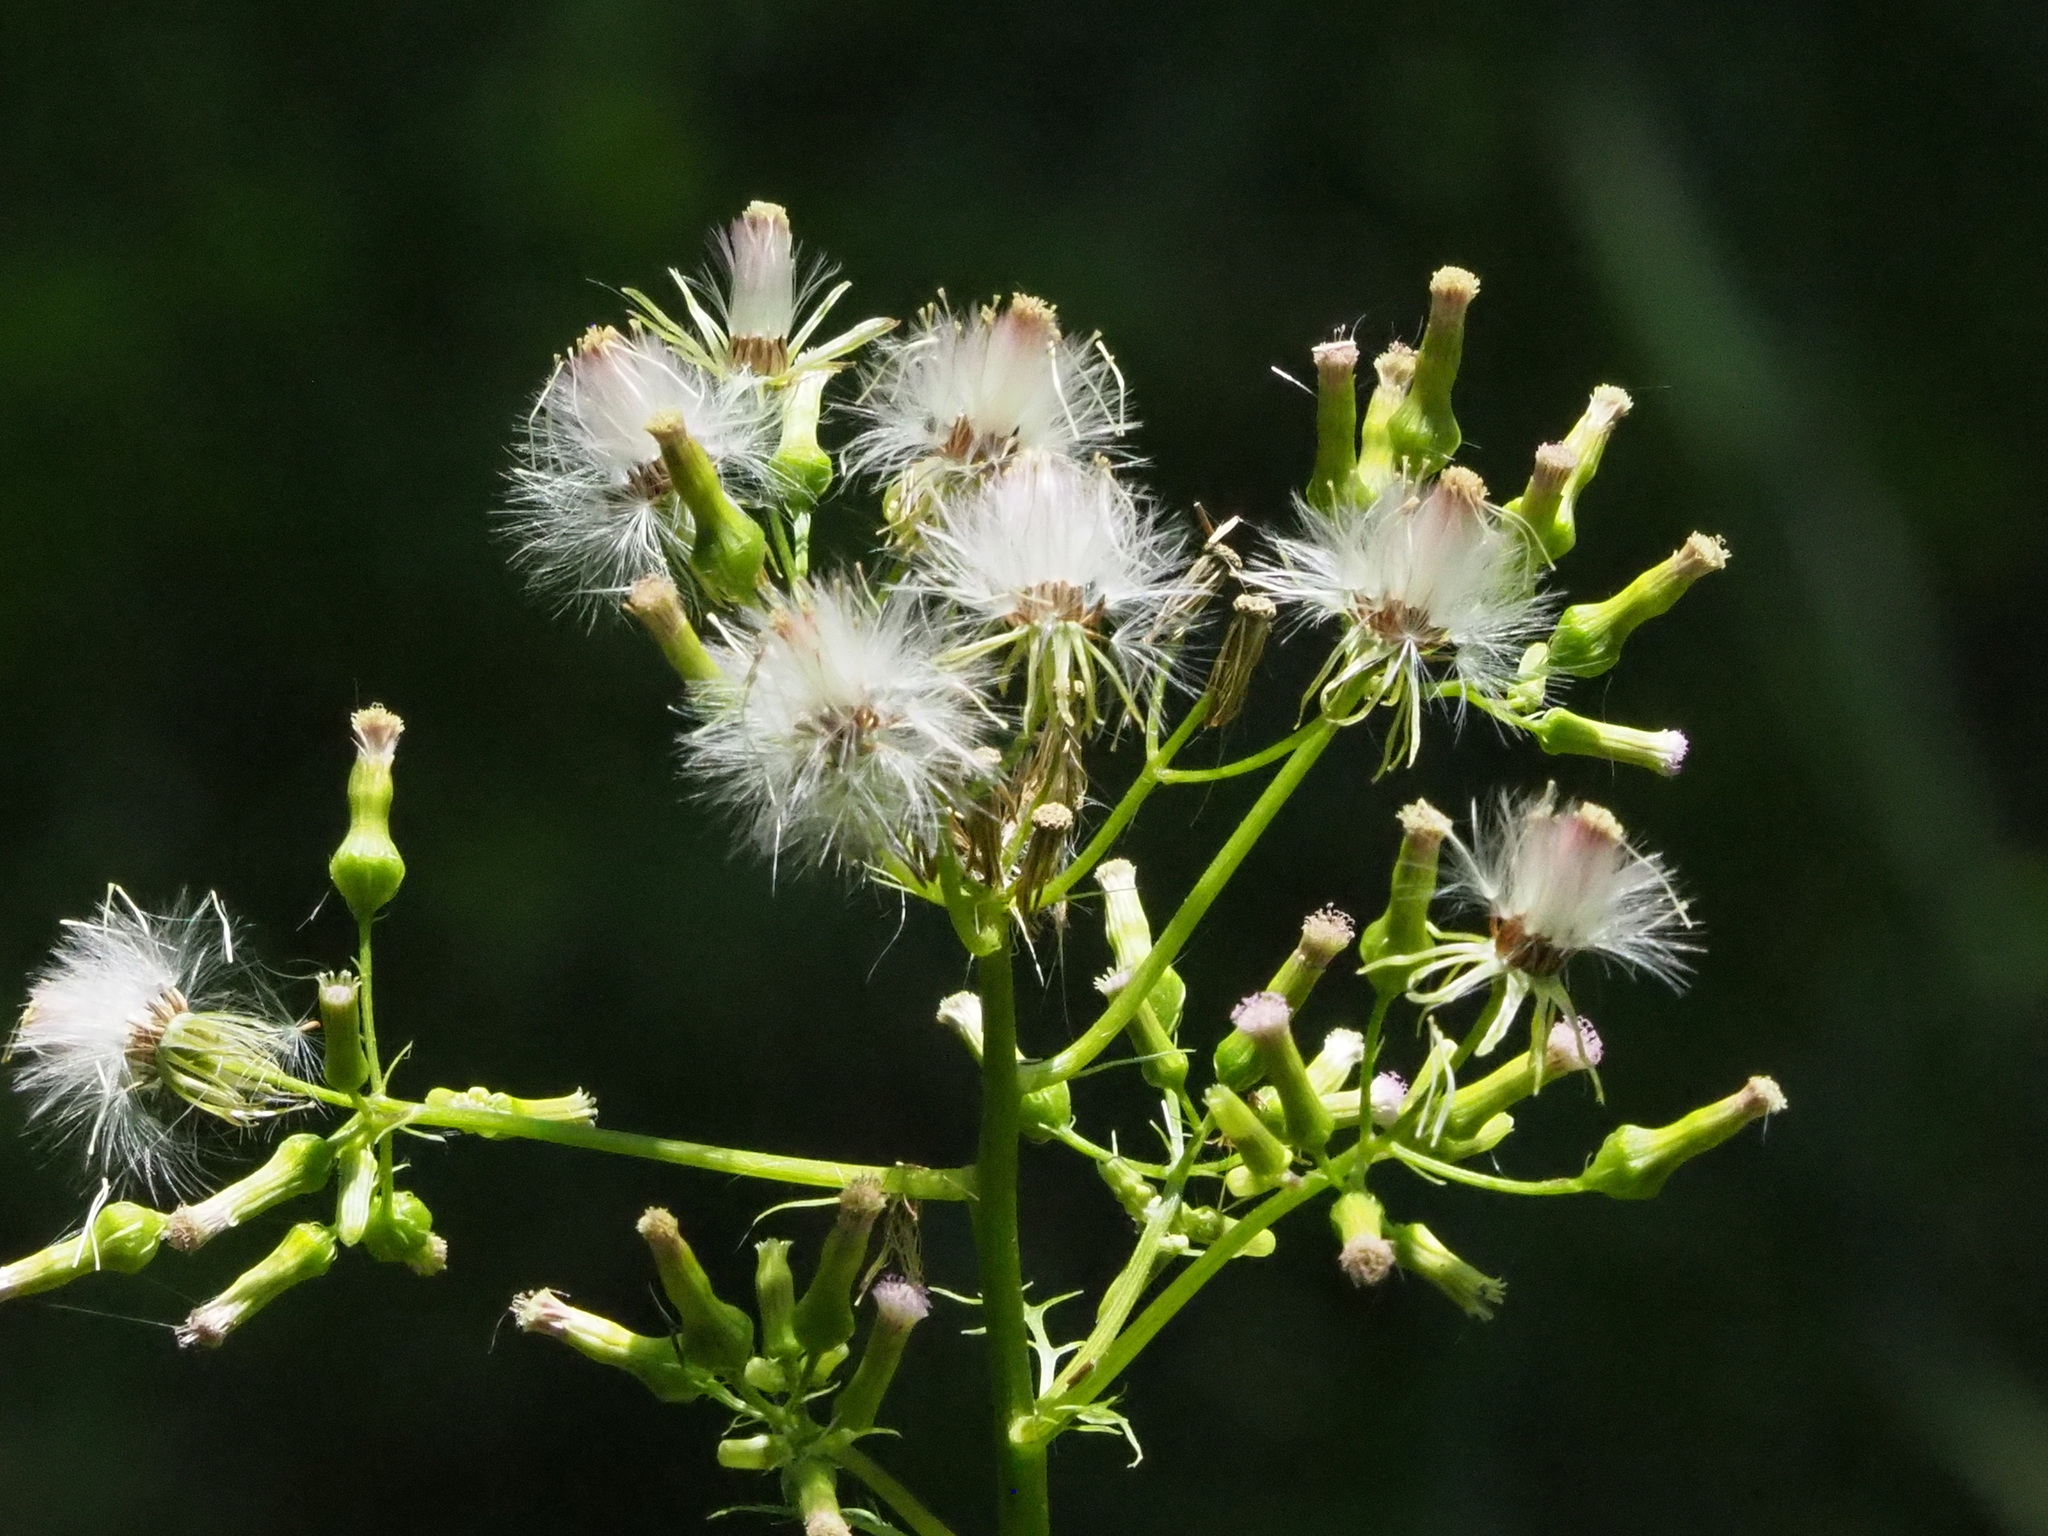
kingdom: Plantae
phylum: Tracheophyta
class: Magnoliopsida
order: Asterales
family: Asteraceae
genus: Erechtites
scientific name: Erechtites valerianifolius
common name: Tropical burnweed
